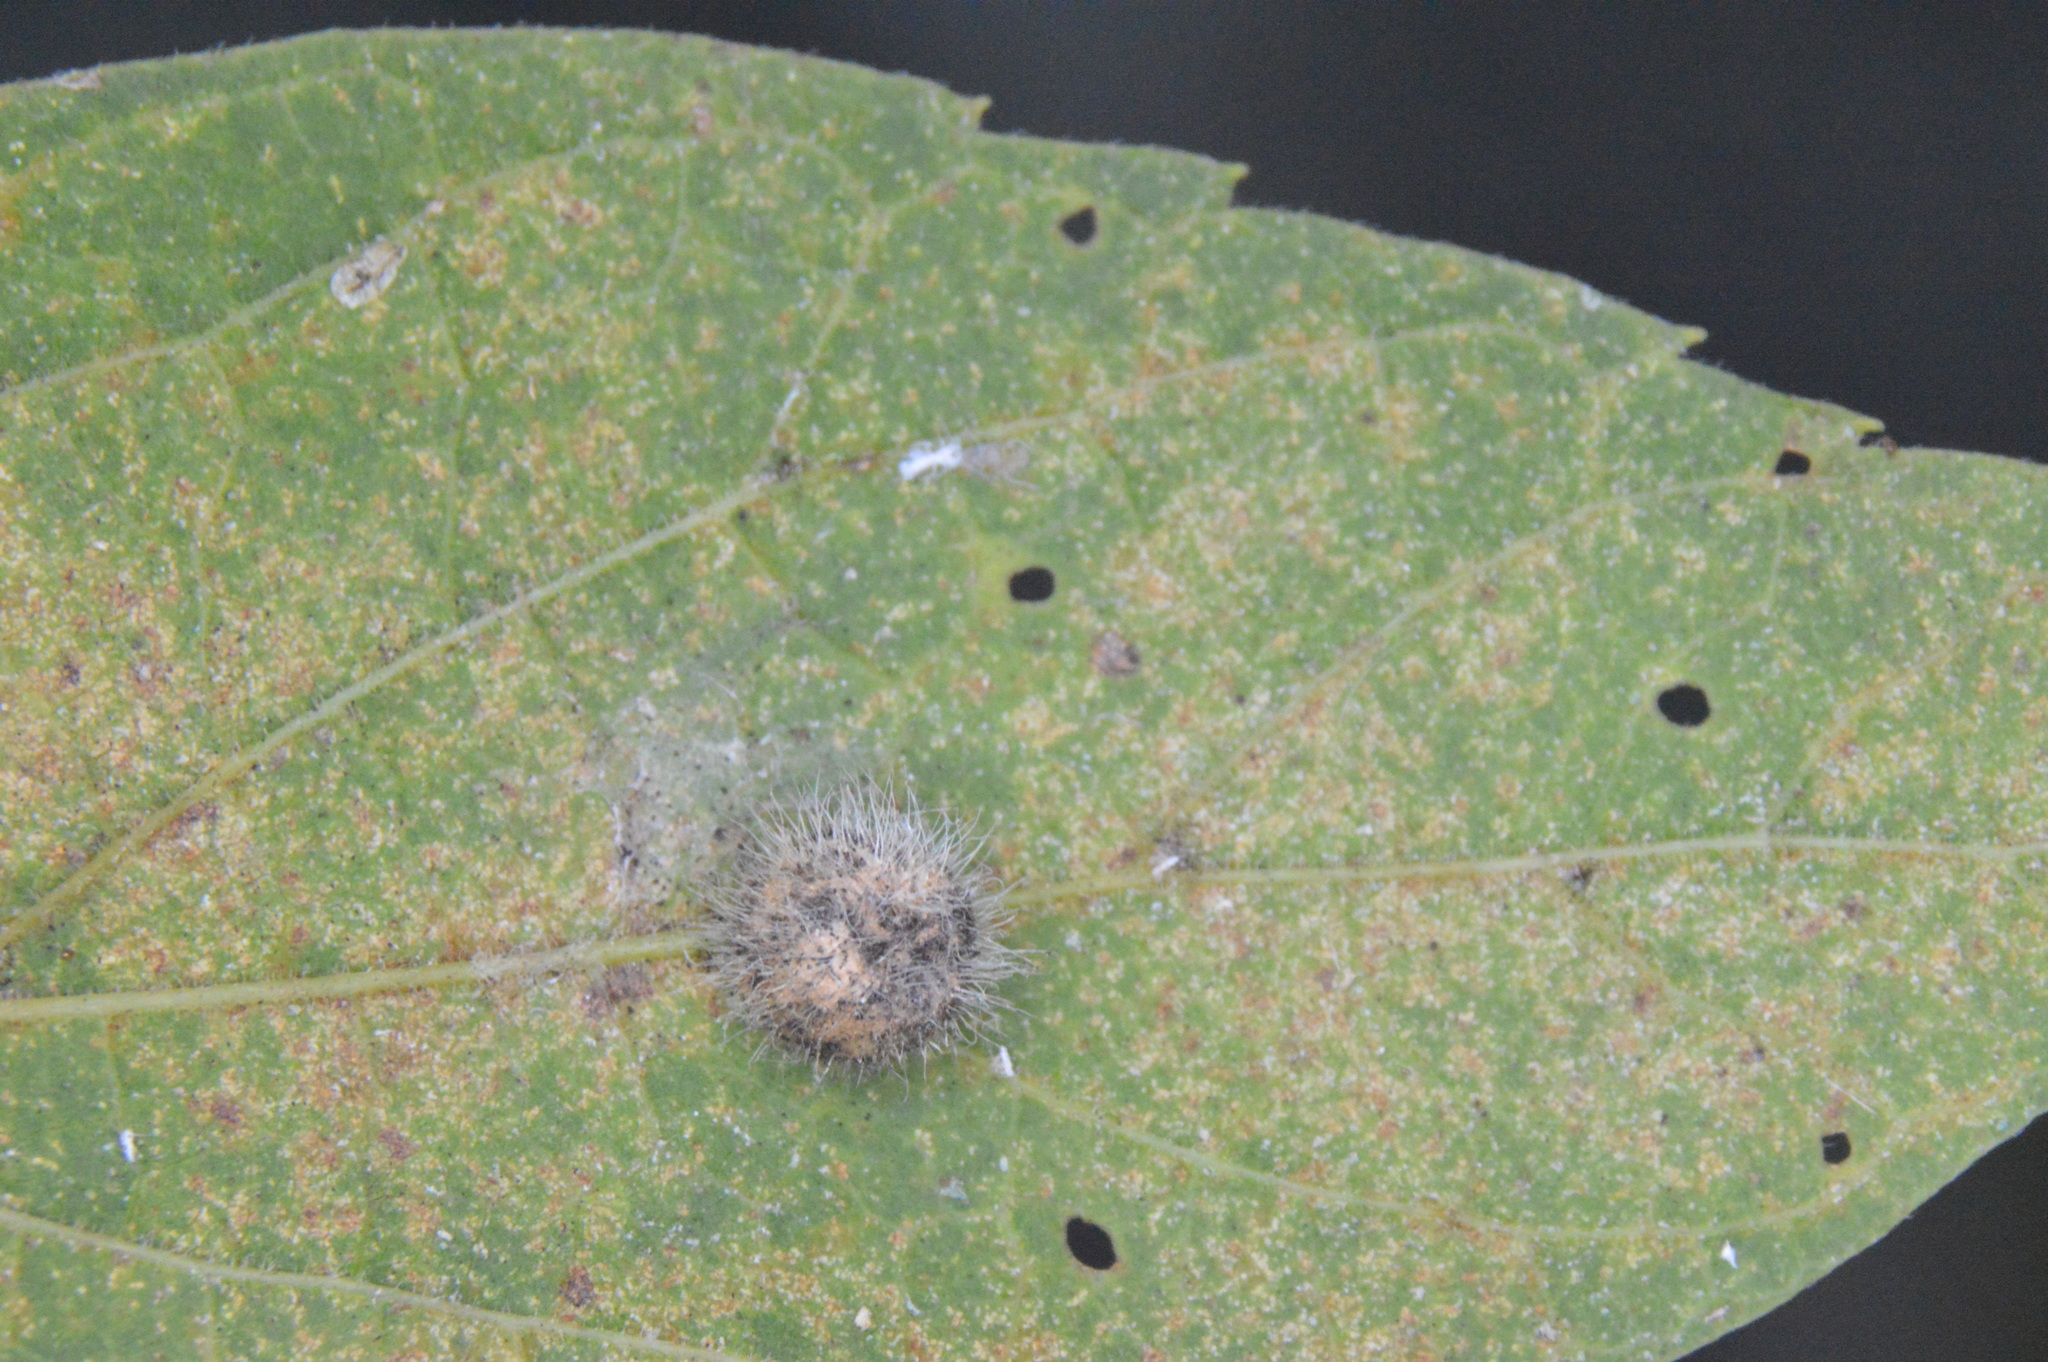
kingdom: Animalia
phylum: Arthropoda
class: Insecta
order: Diptera
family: Cecidomyiidae
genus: Celticecis
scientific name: Celticecis pubescens
